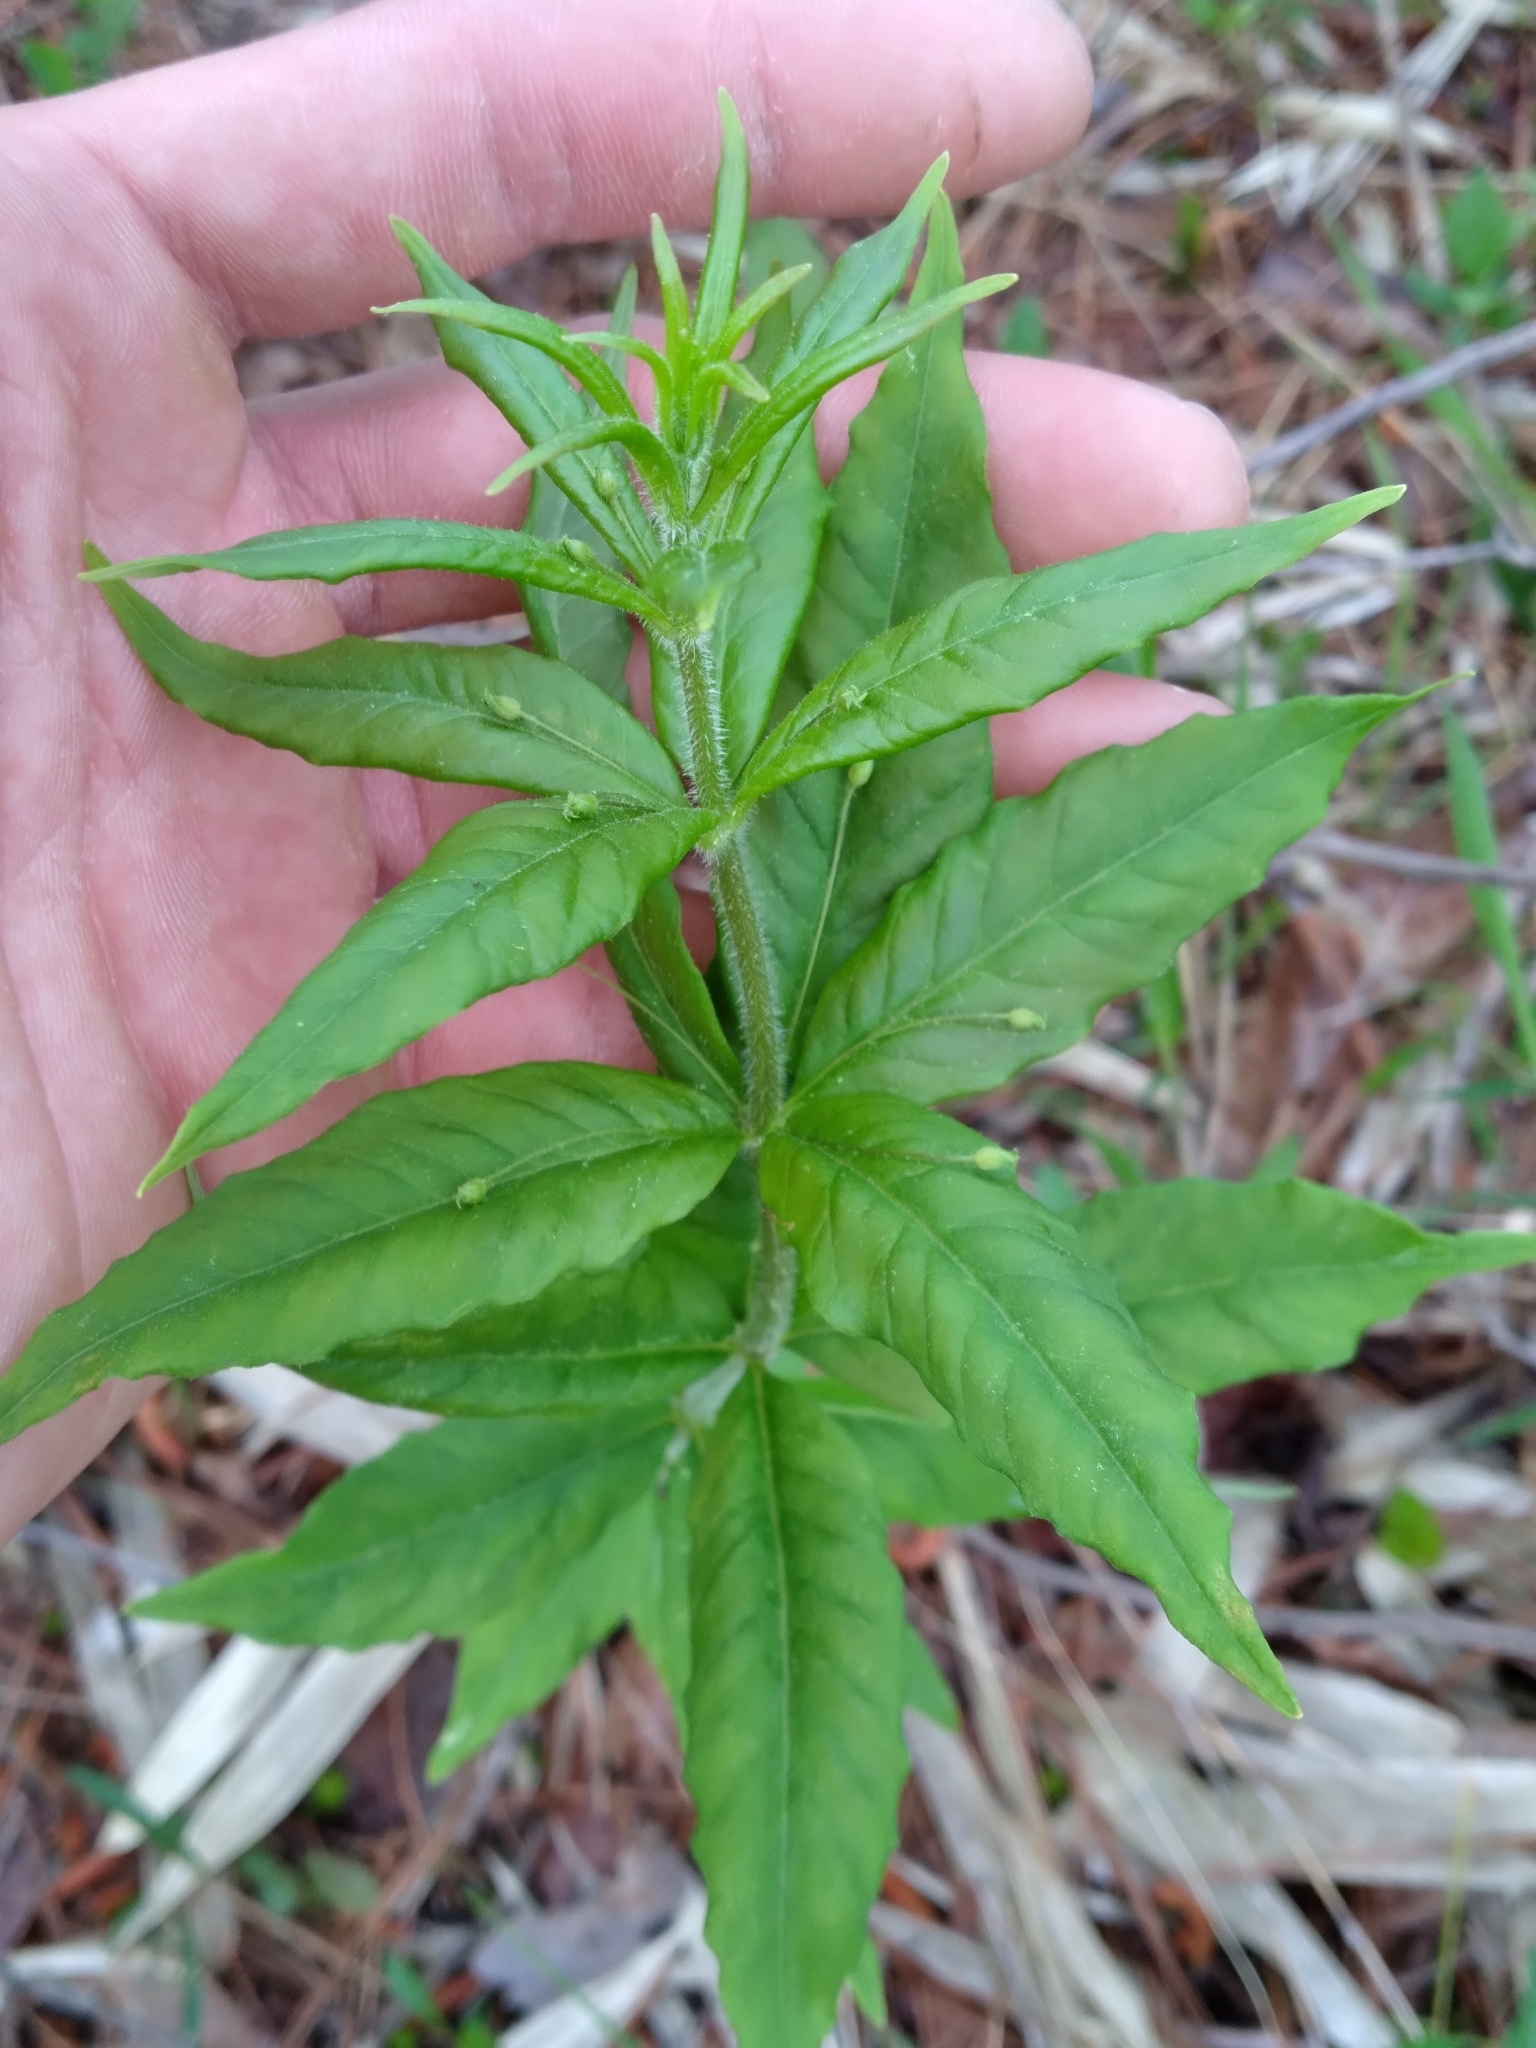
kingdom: Plantae
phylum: Tracheophyta
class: Magnoliopsida
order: Ericales
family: Primulaceae
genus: Lysimachia
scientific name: Lysimachia quadrifolia
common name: Whorled loosestrife
